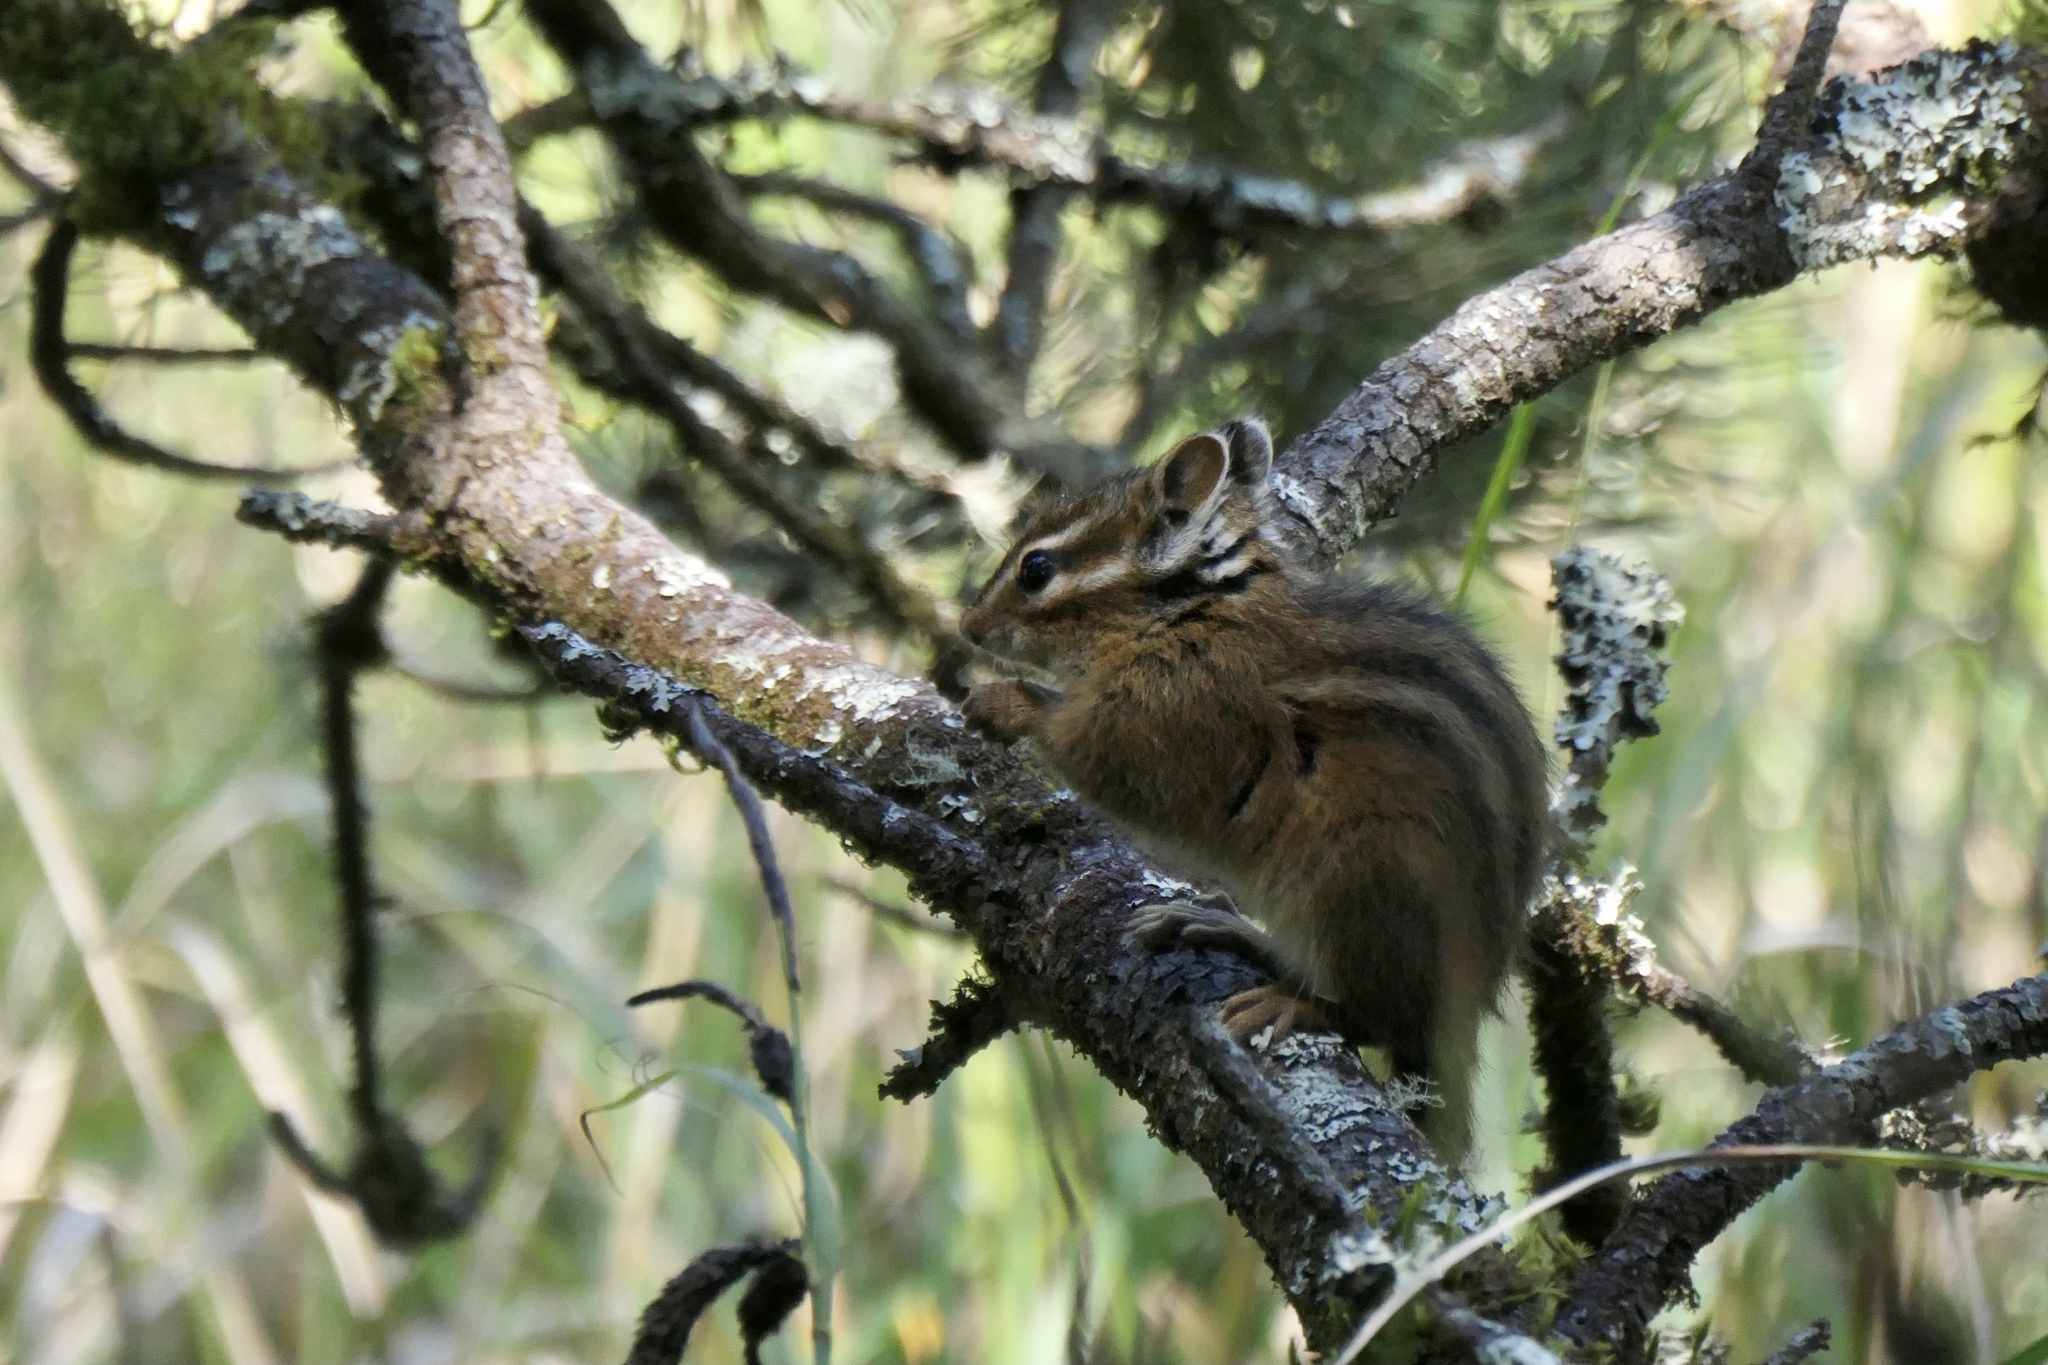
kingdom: Animalia
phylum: Chordata
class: Mammalia
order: Rodentia
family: Sciuridae
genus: Tamias
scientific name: Tamias townsendii
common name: Townsend's chipmunk
